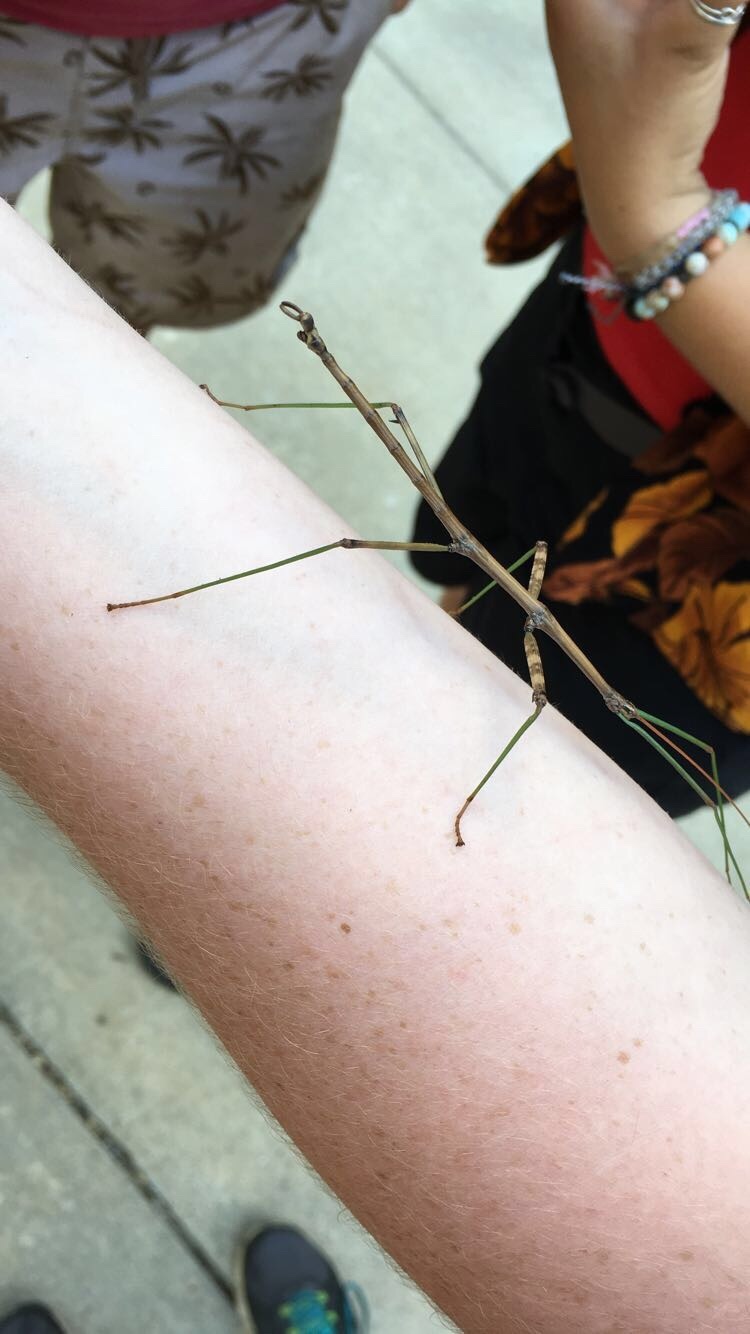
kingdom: Animalia
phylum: Arthropoda
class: Insecta
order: Phasmida
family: Diapheromeridae
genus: Diapheromera
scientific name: Diapheromera femorata
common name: Common american walkingstick
